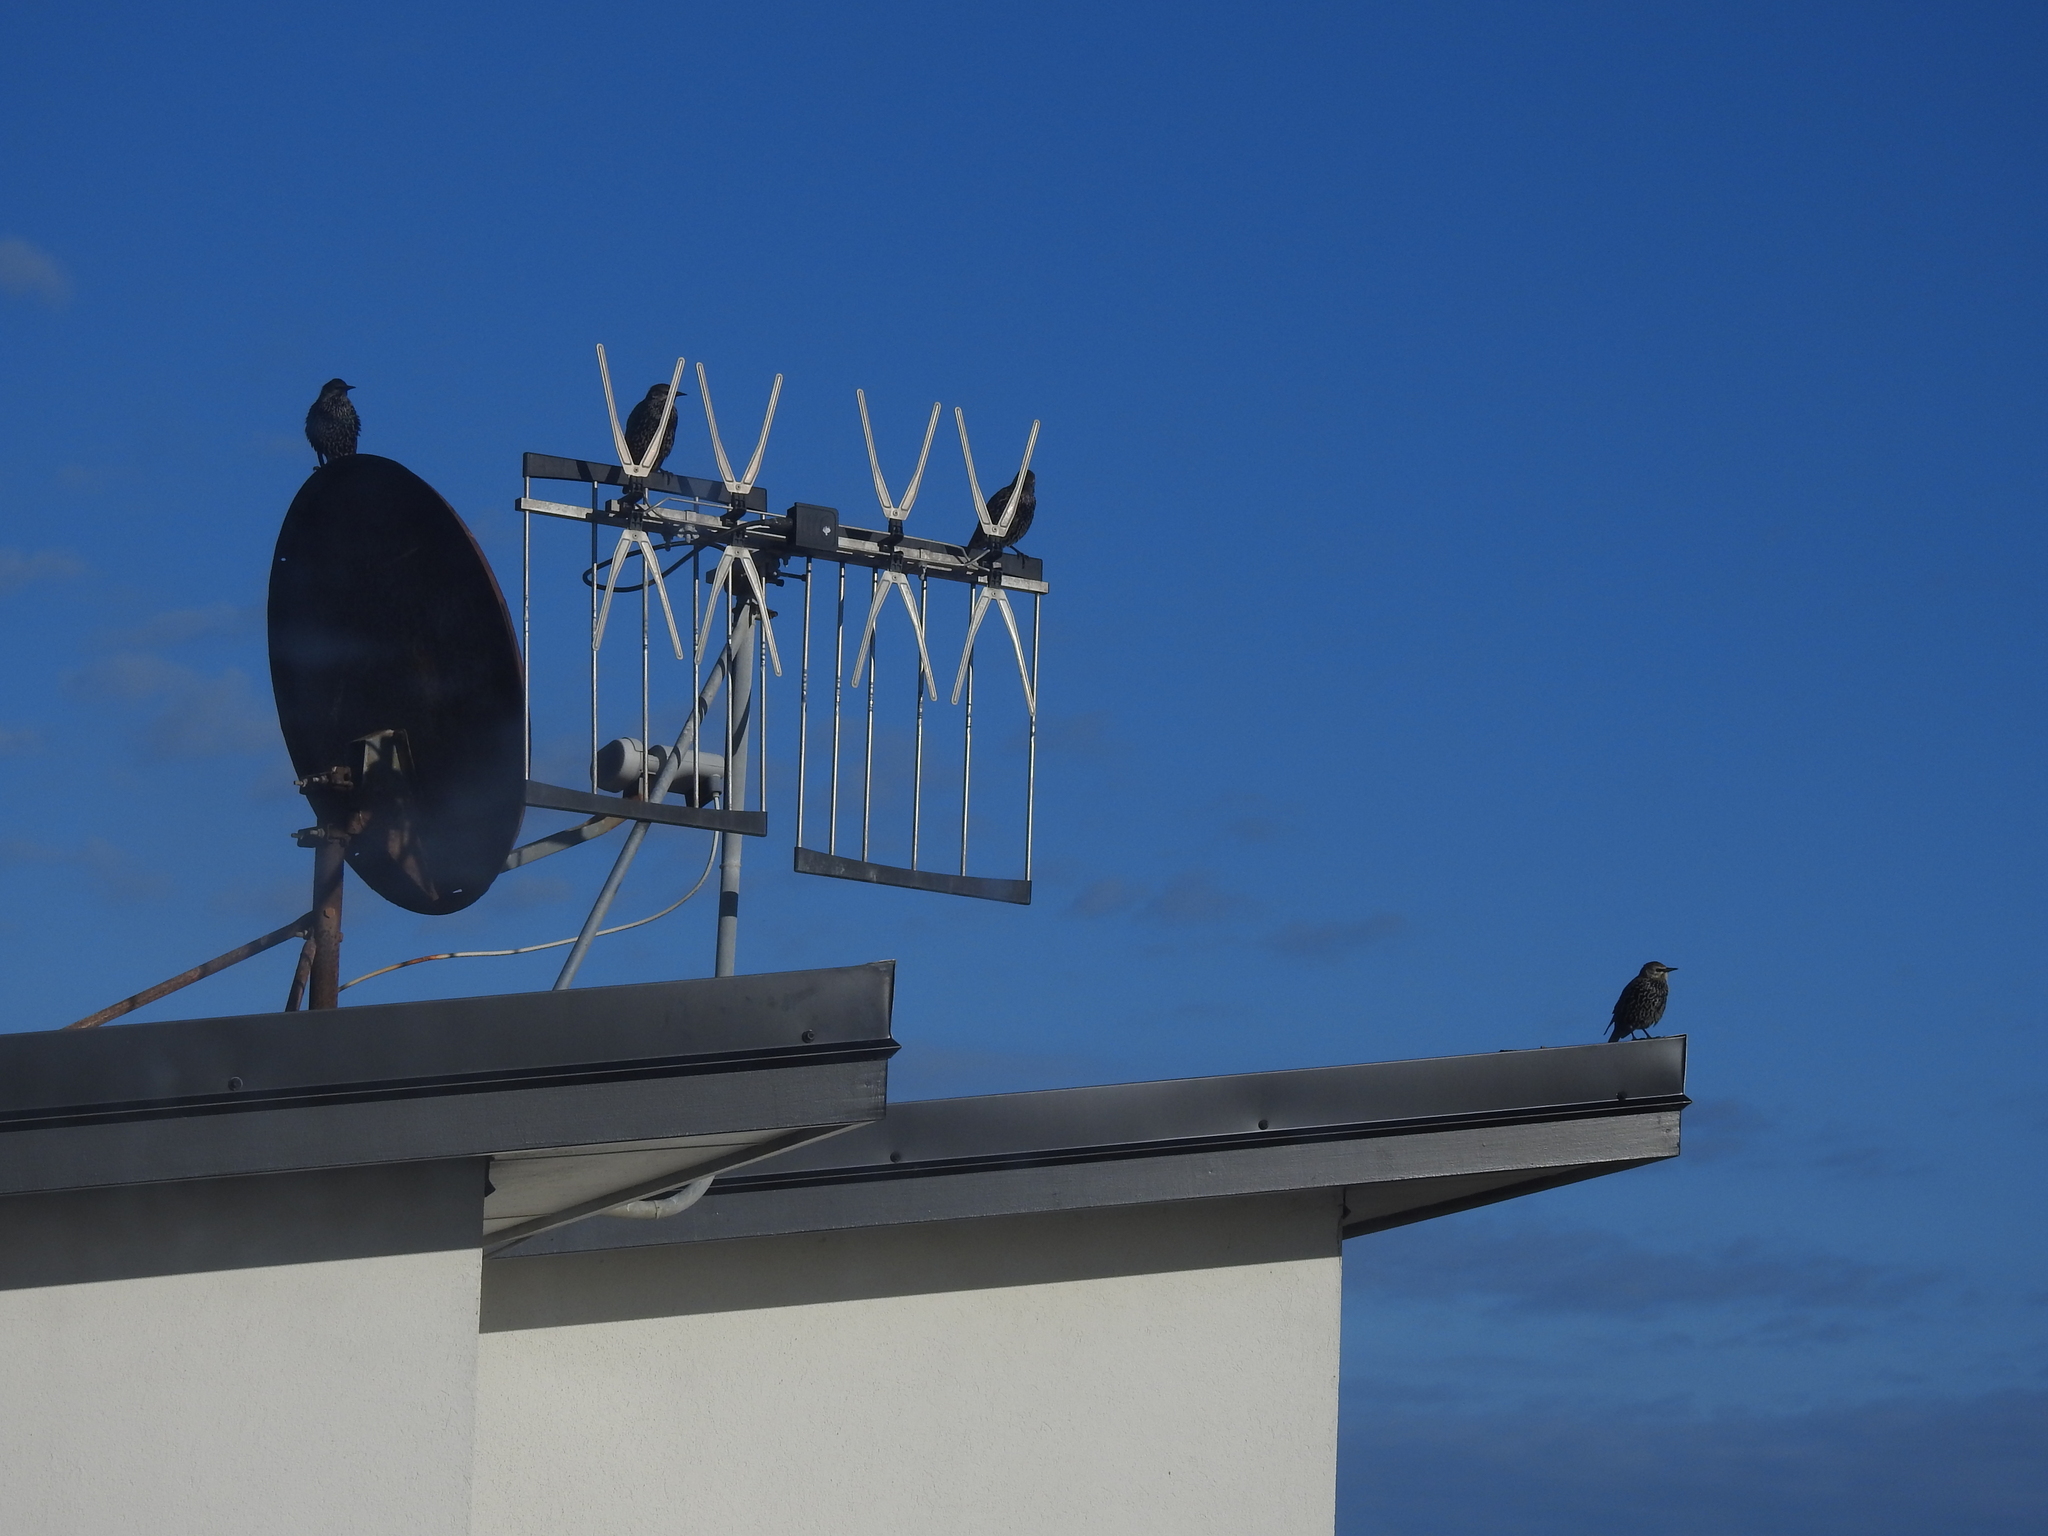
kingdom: Animalia
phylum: Chordata
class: Aves
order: Passeriformes
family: Sturnidae
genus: Sturnus
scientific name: Sturnus vulgaris
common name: Common starling
